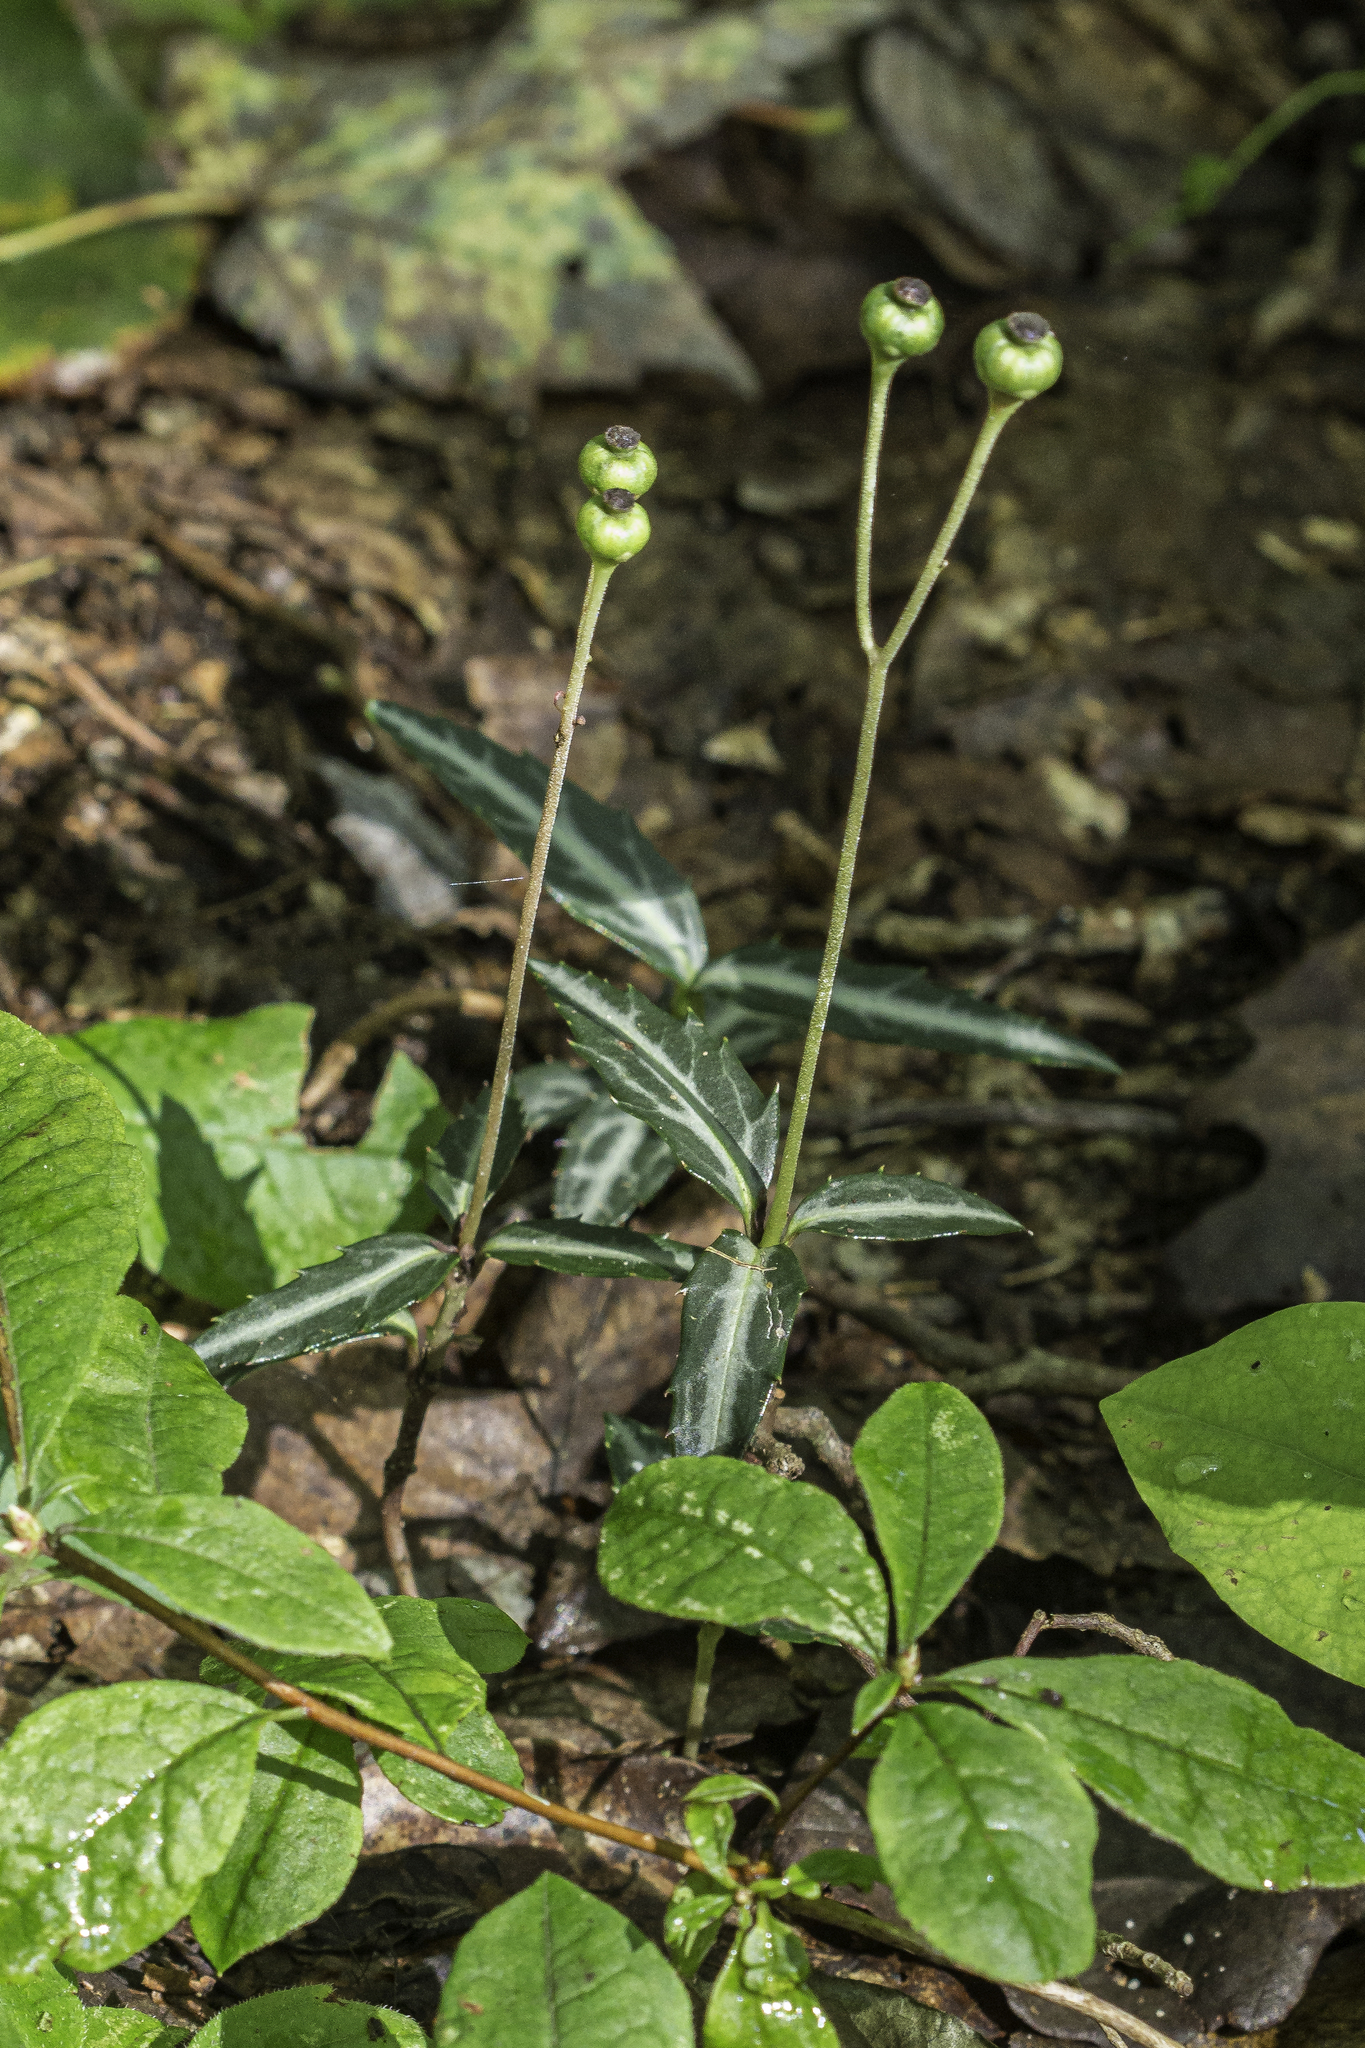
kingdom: Plantae
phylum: Tracheophyta
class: Magnoliopsida
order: Ericales
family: Ericaceae
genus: Chimaphila
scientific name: Chimaphila maculata
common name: Spotted pipsissewa
